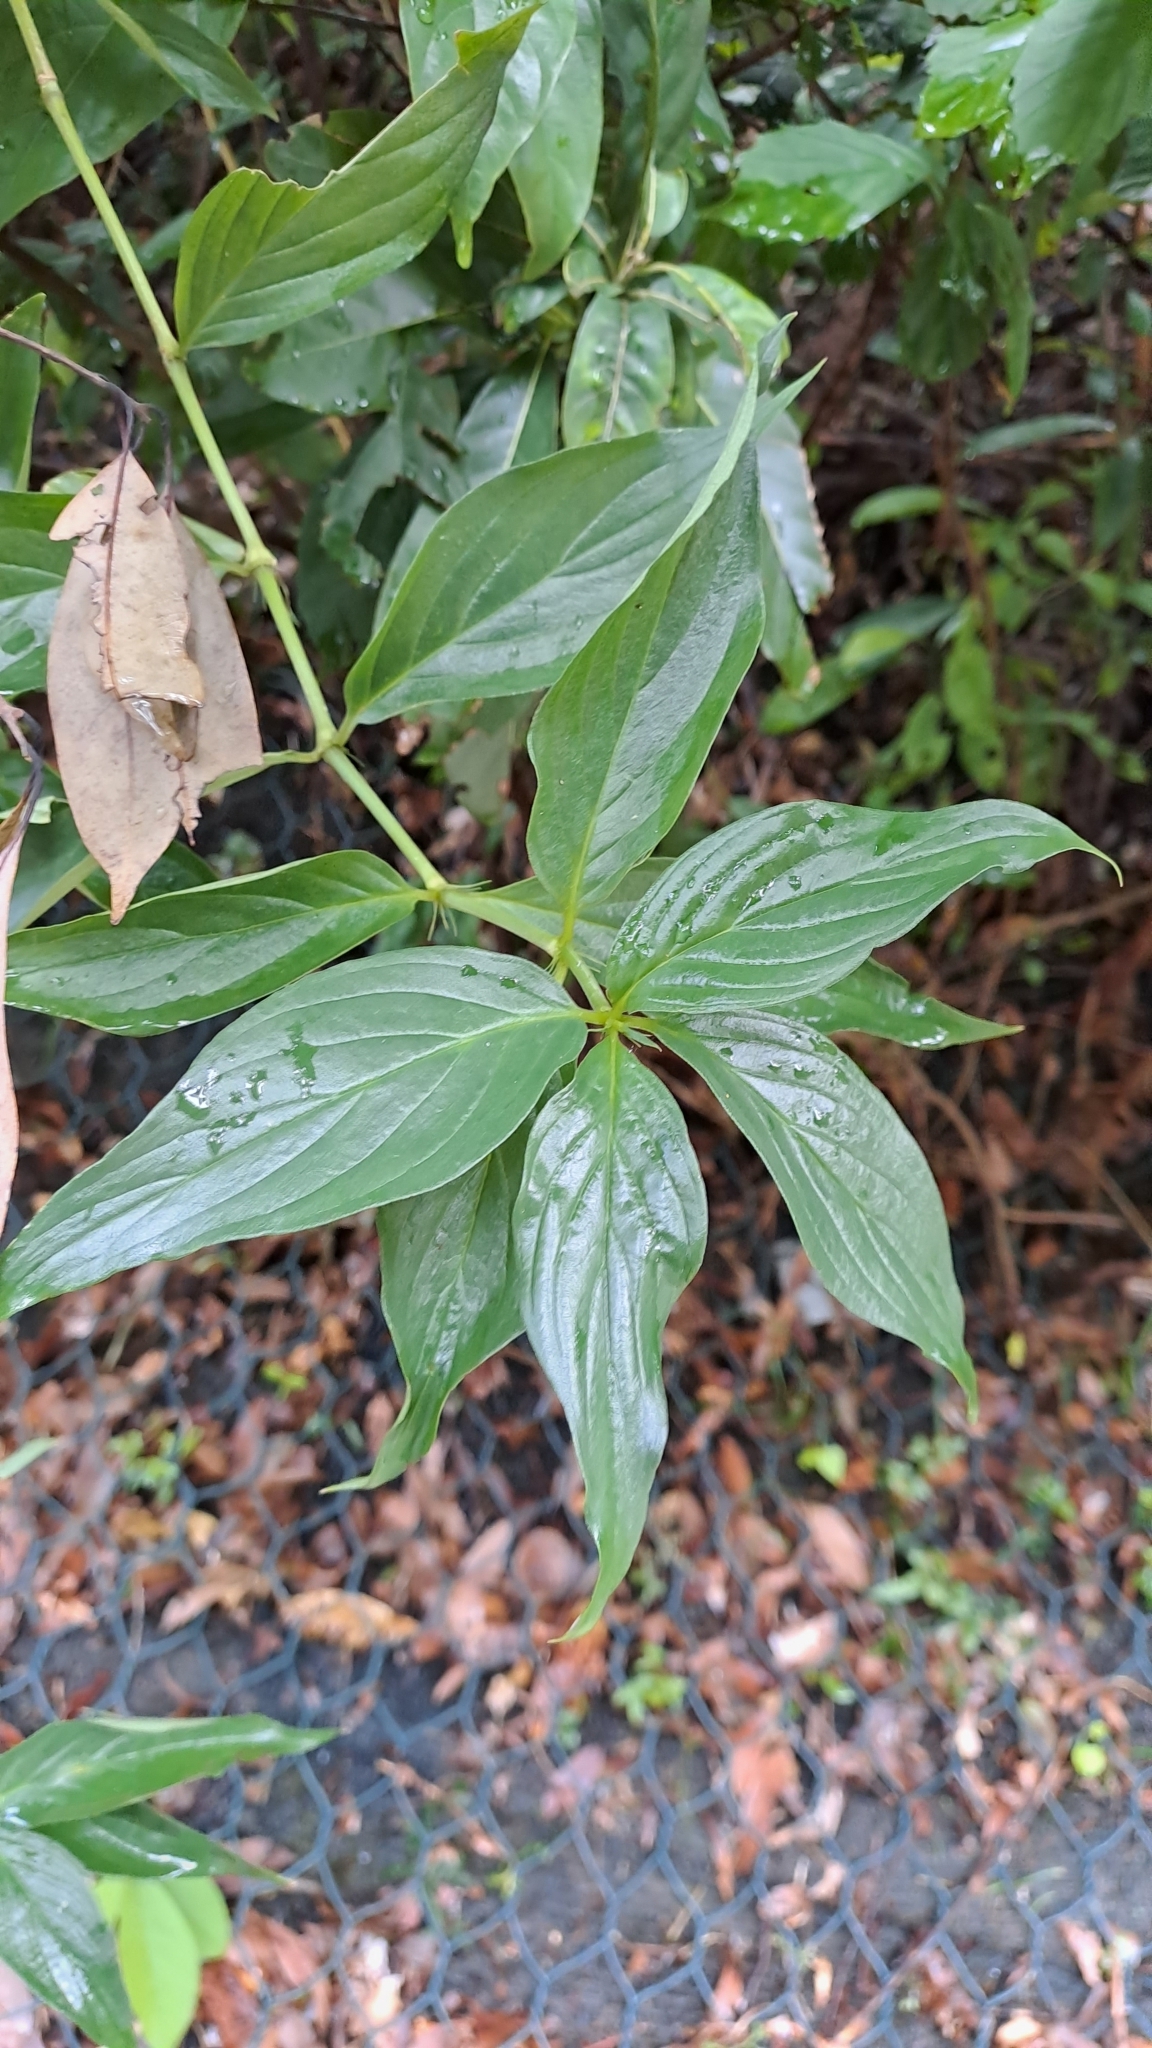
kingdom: Plantae
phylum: Tracheophyta
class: Magnoliopsida
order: Gentianales
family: Rubiaceae
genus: Dimetia
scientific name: Dimetia hedyotidea
